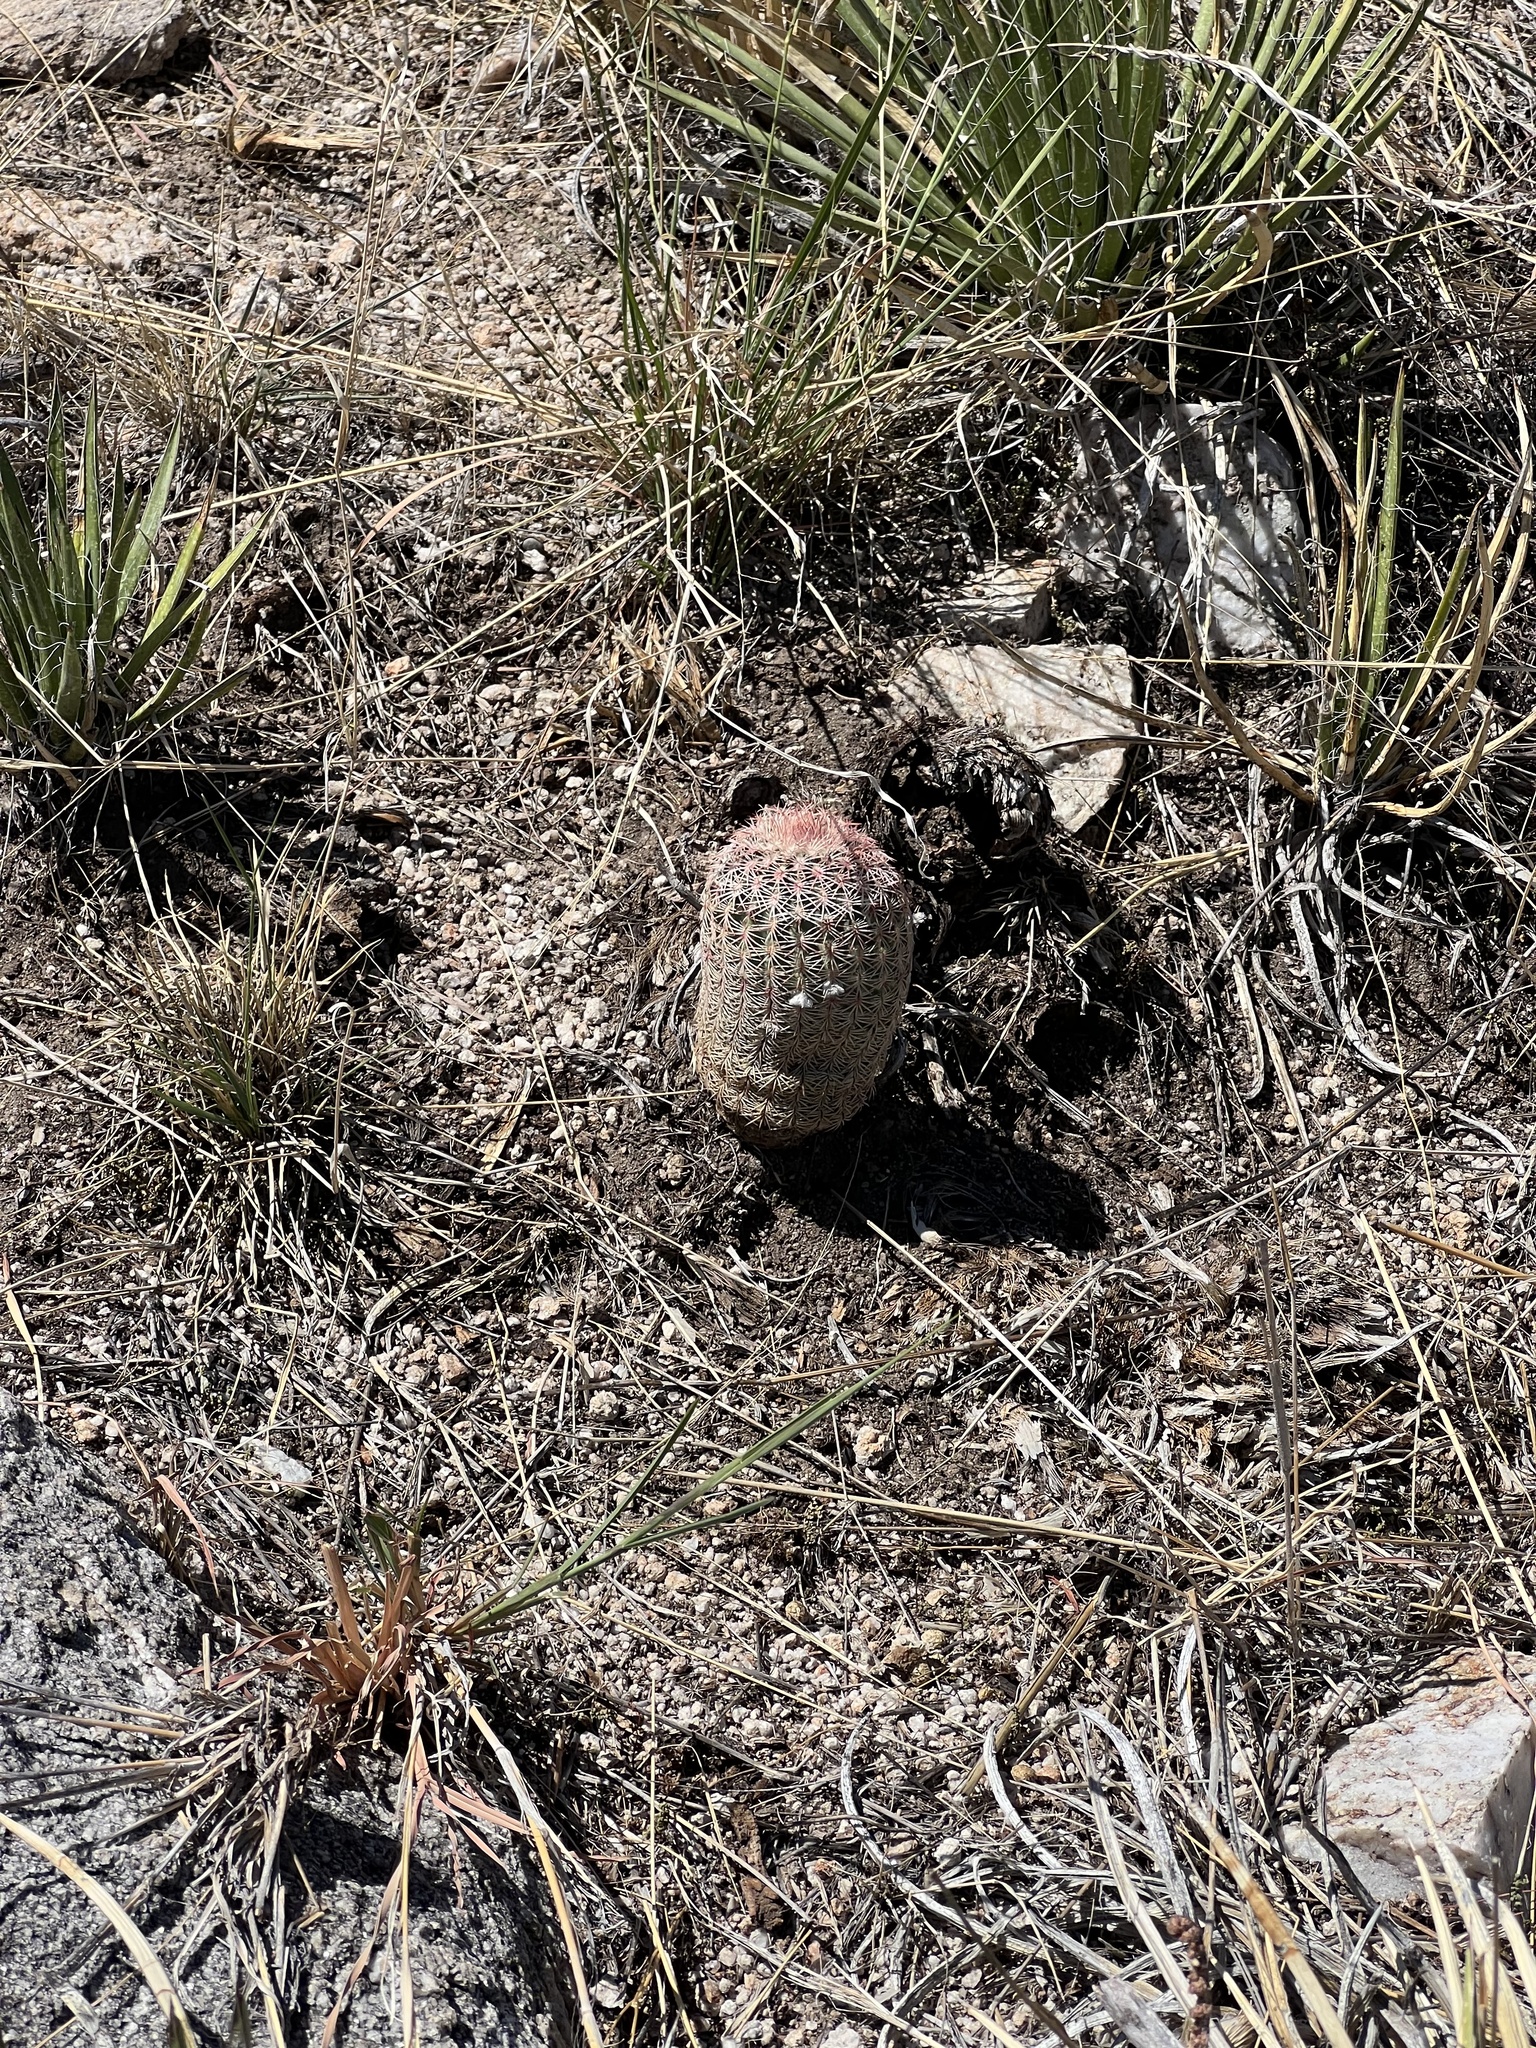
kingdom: Plantae
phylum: Tracheophyta
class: Magnoliopsida
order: Caryophyllales
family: Cactaceae
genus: Echinocereus
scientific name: Echinocereus rigidissimus
